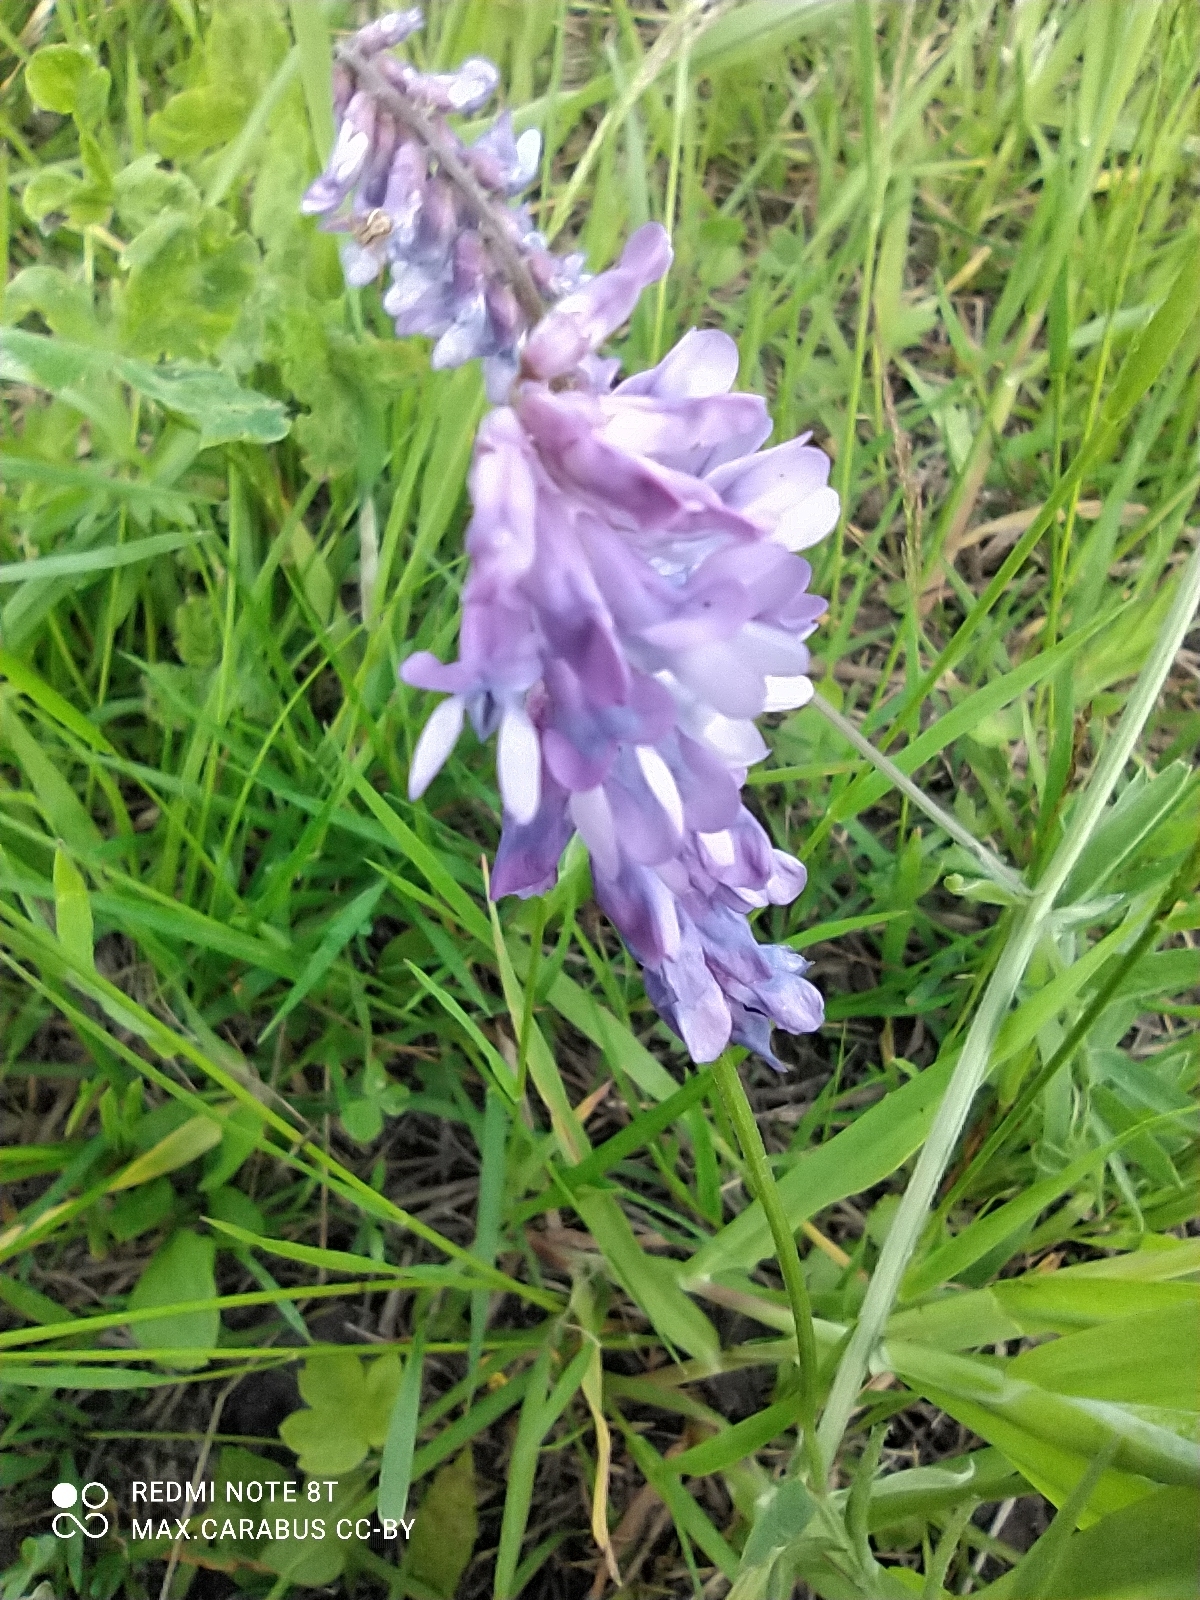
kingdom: Plantae
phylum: Tracheophyta
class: Magnoliopsida
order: Fabales
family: Fabaceae
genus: Vicia
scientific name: Vicia cracca
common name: Bird vetch
